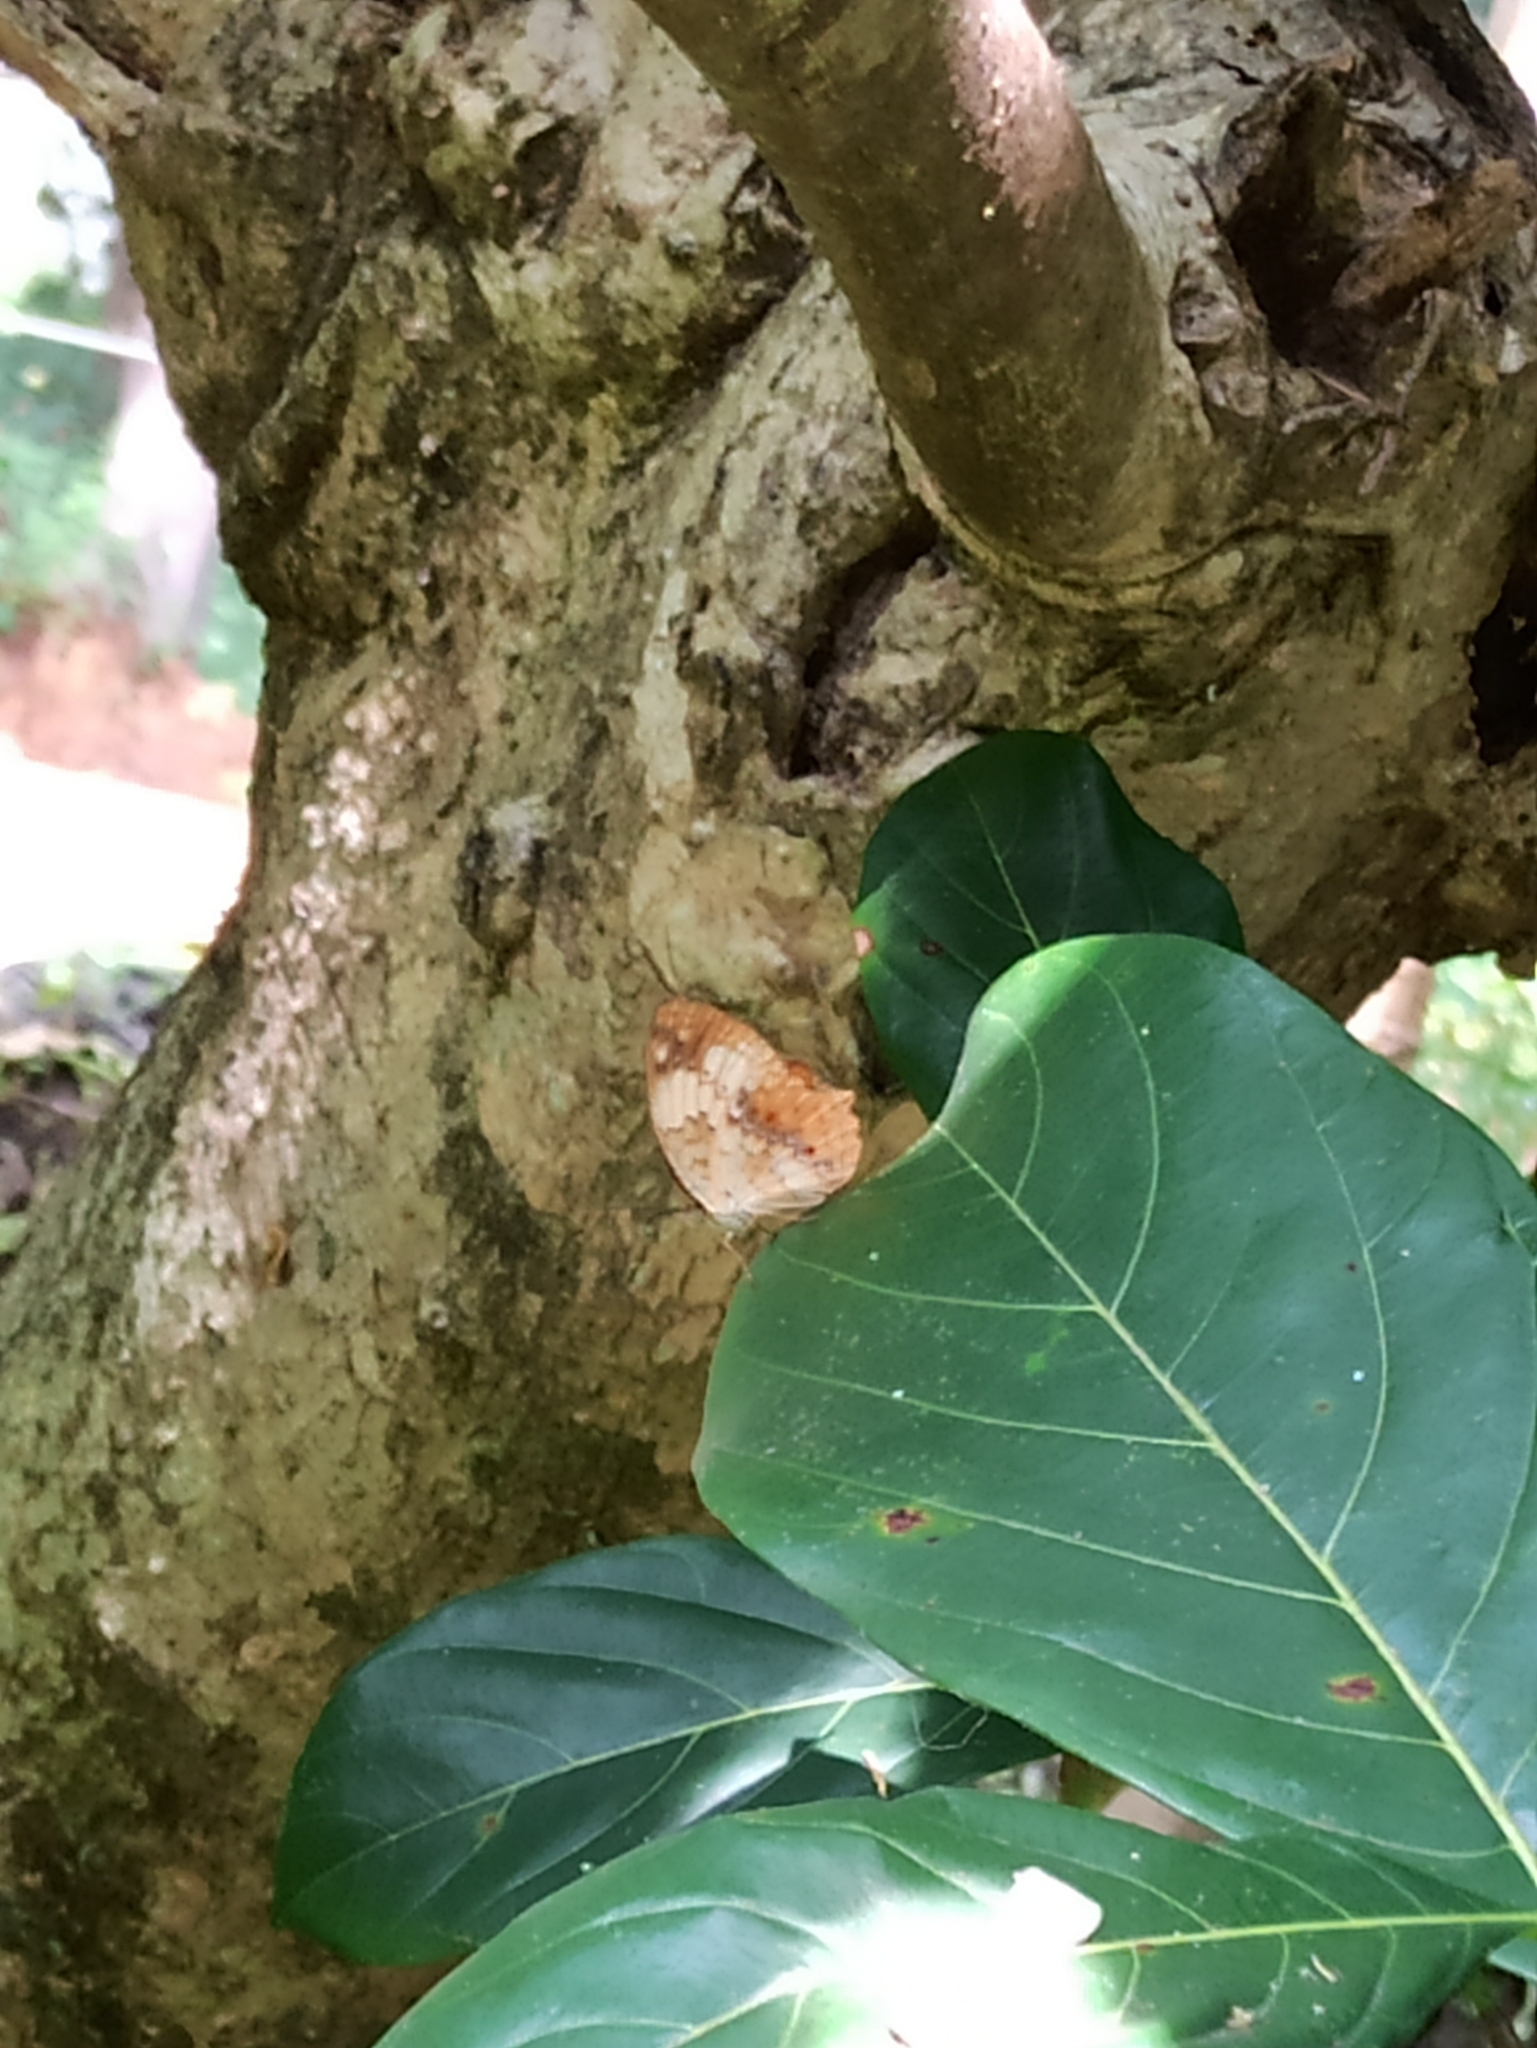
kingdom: Animalia
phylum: Arthropoda
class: Insecta
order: Lepidoptera
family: Nymphalidae
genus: Cupha
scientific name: Cupha erymanthis
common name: Rustic
